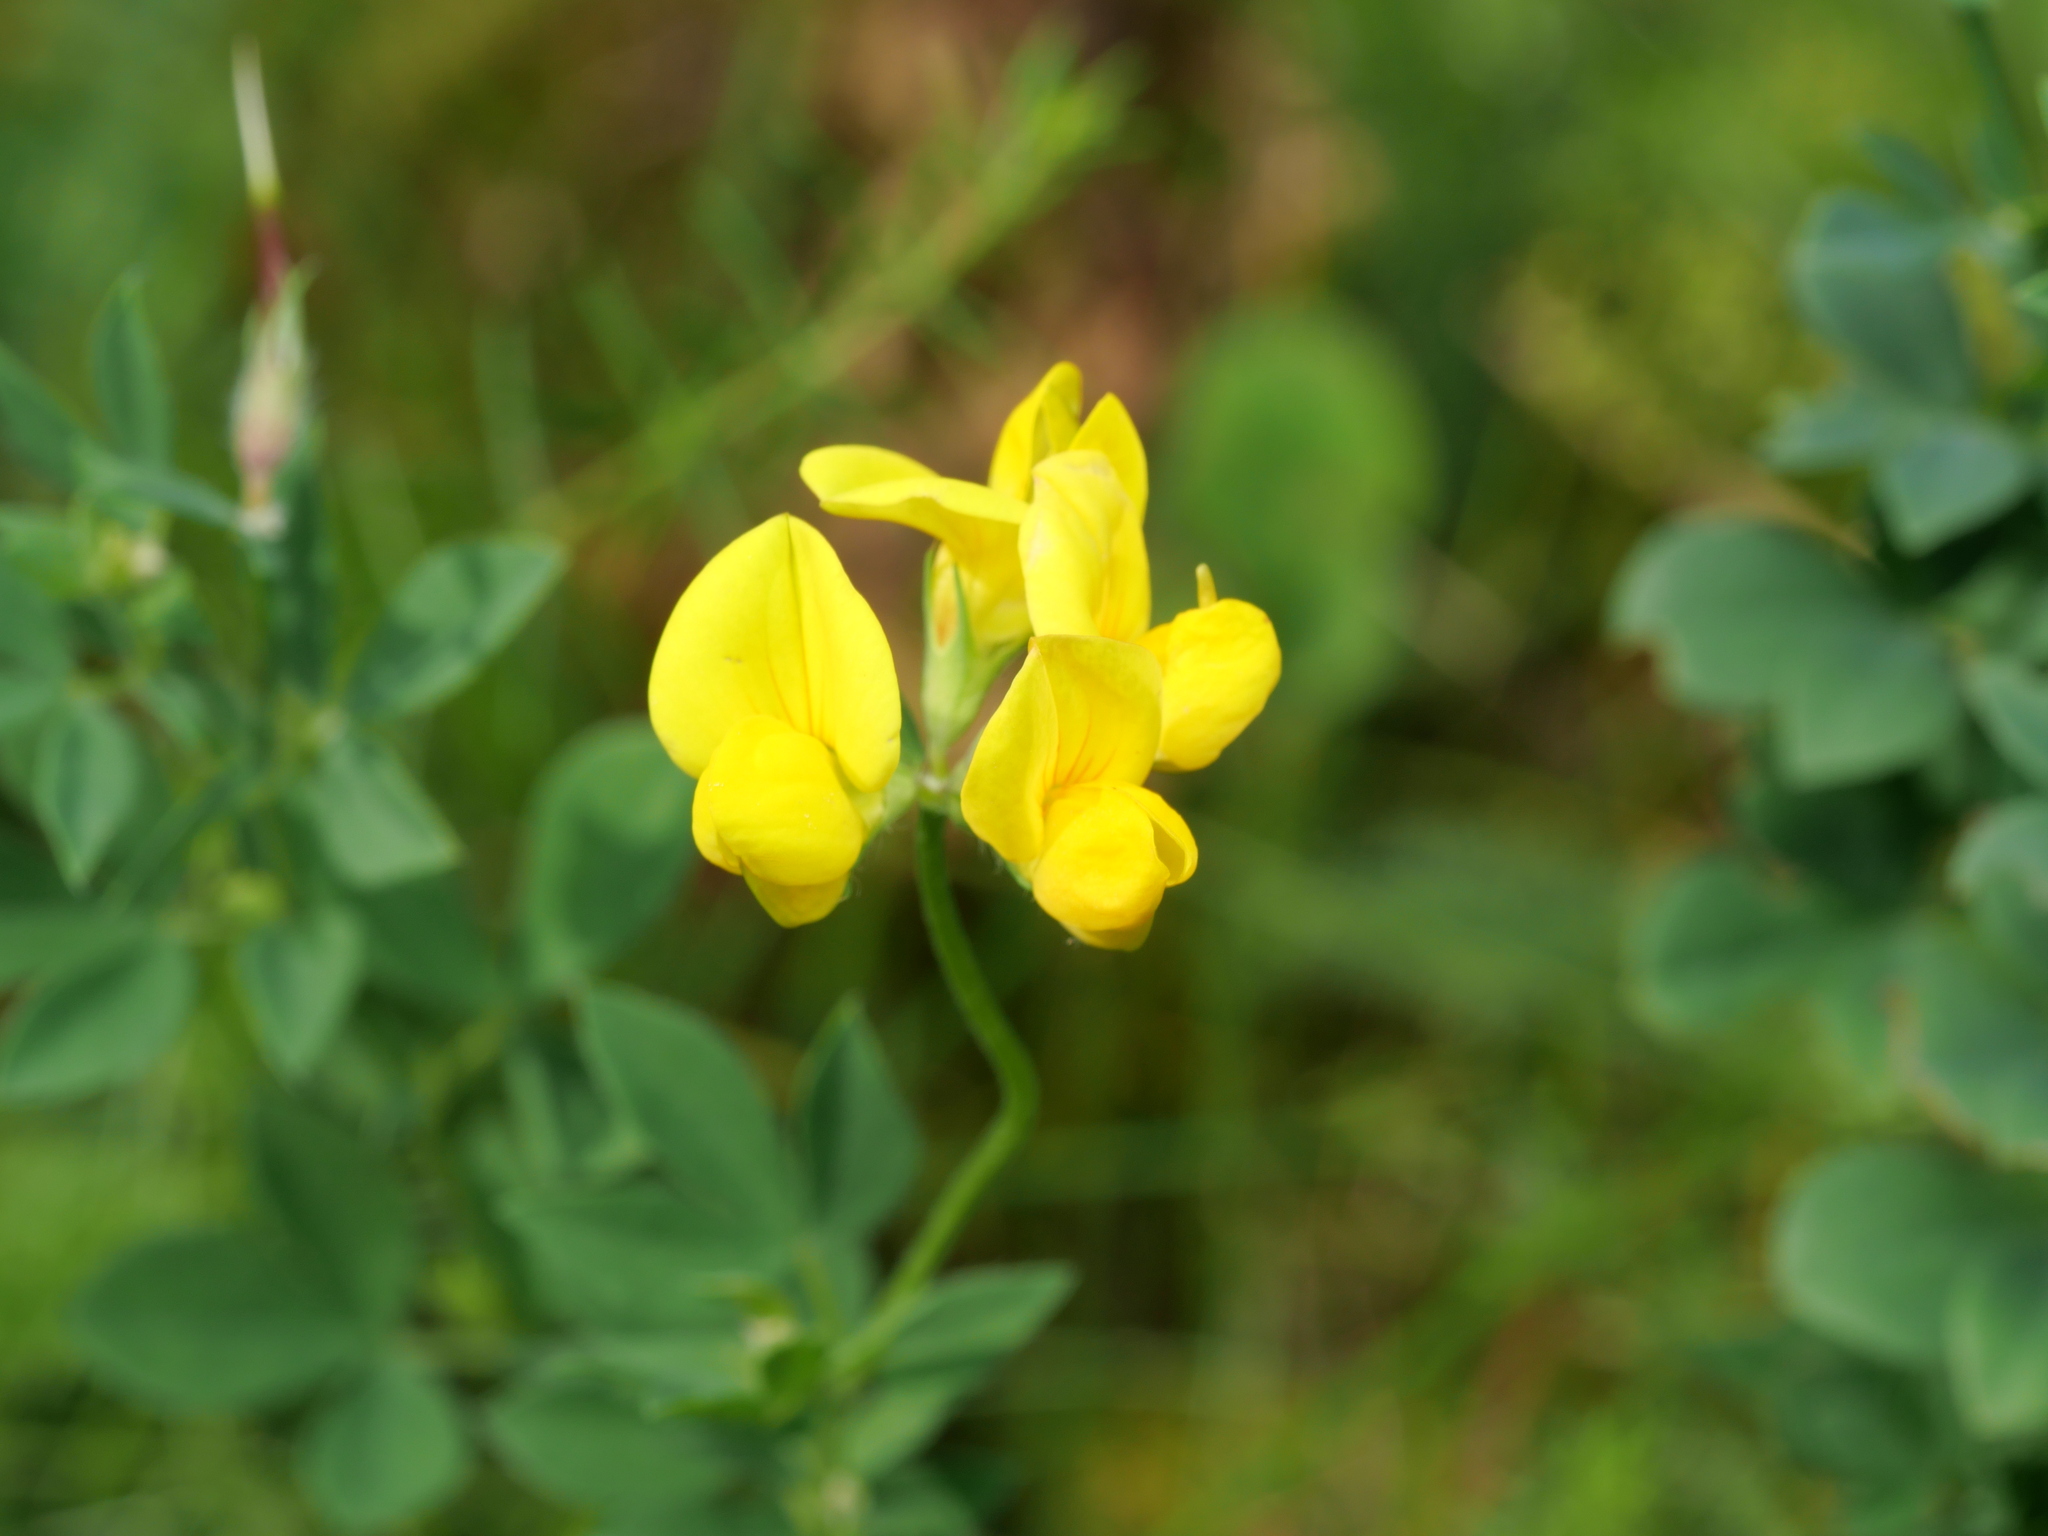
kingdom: Plantae
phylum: Tracheophyta
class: Magnoliopsida
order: Fabales
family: Fabaceae
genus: Lotus
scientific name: Lotus corniculatus
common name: Common bird's-foot-trefoil
